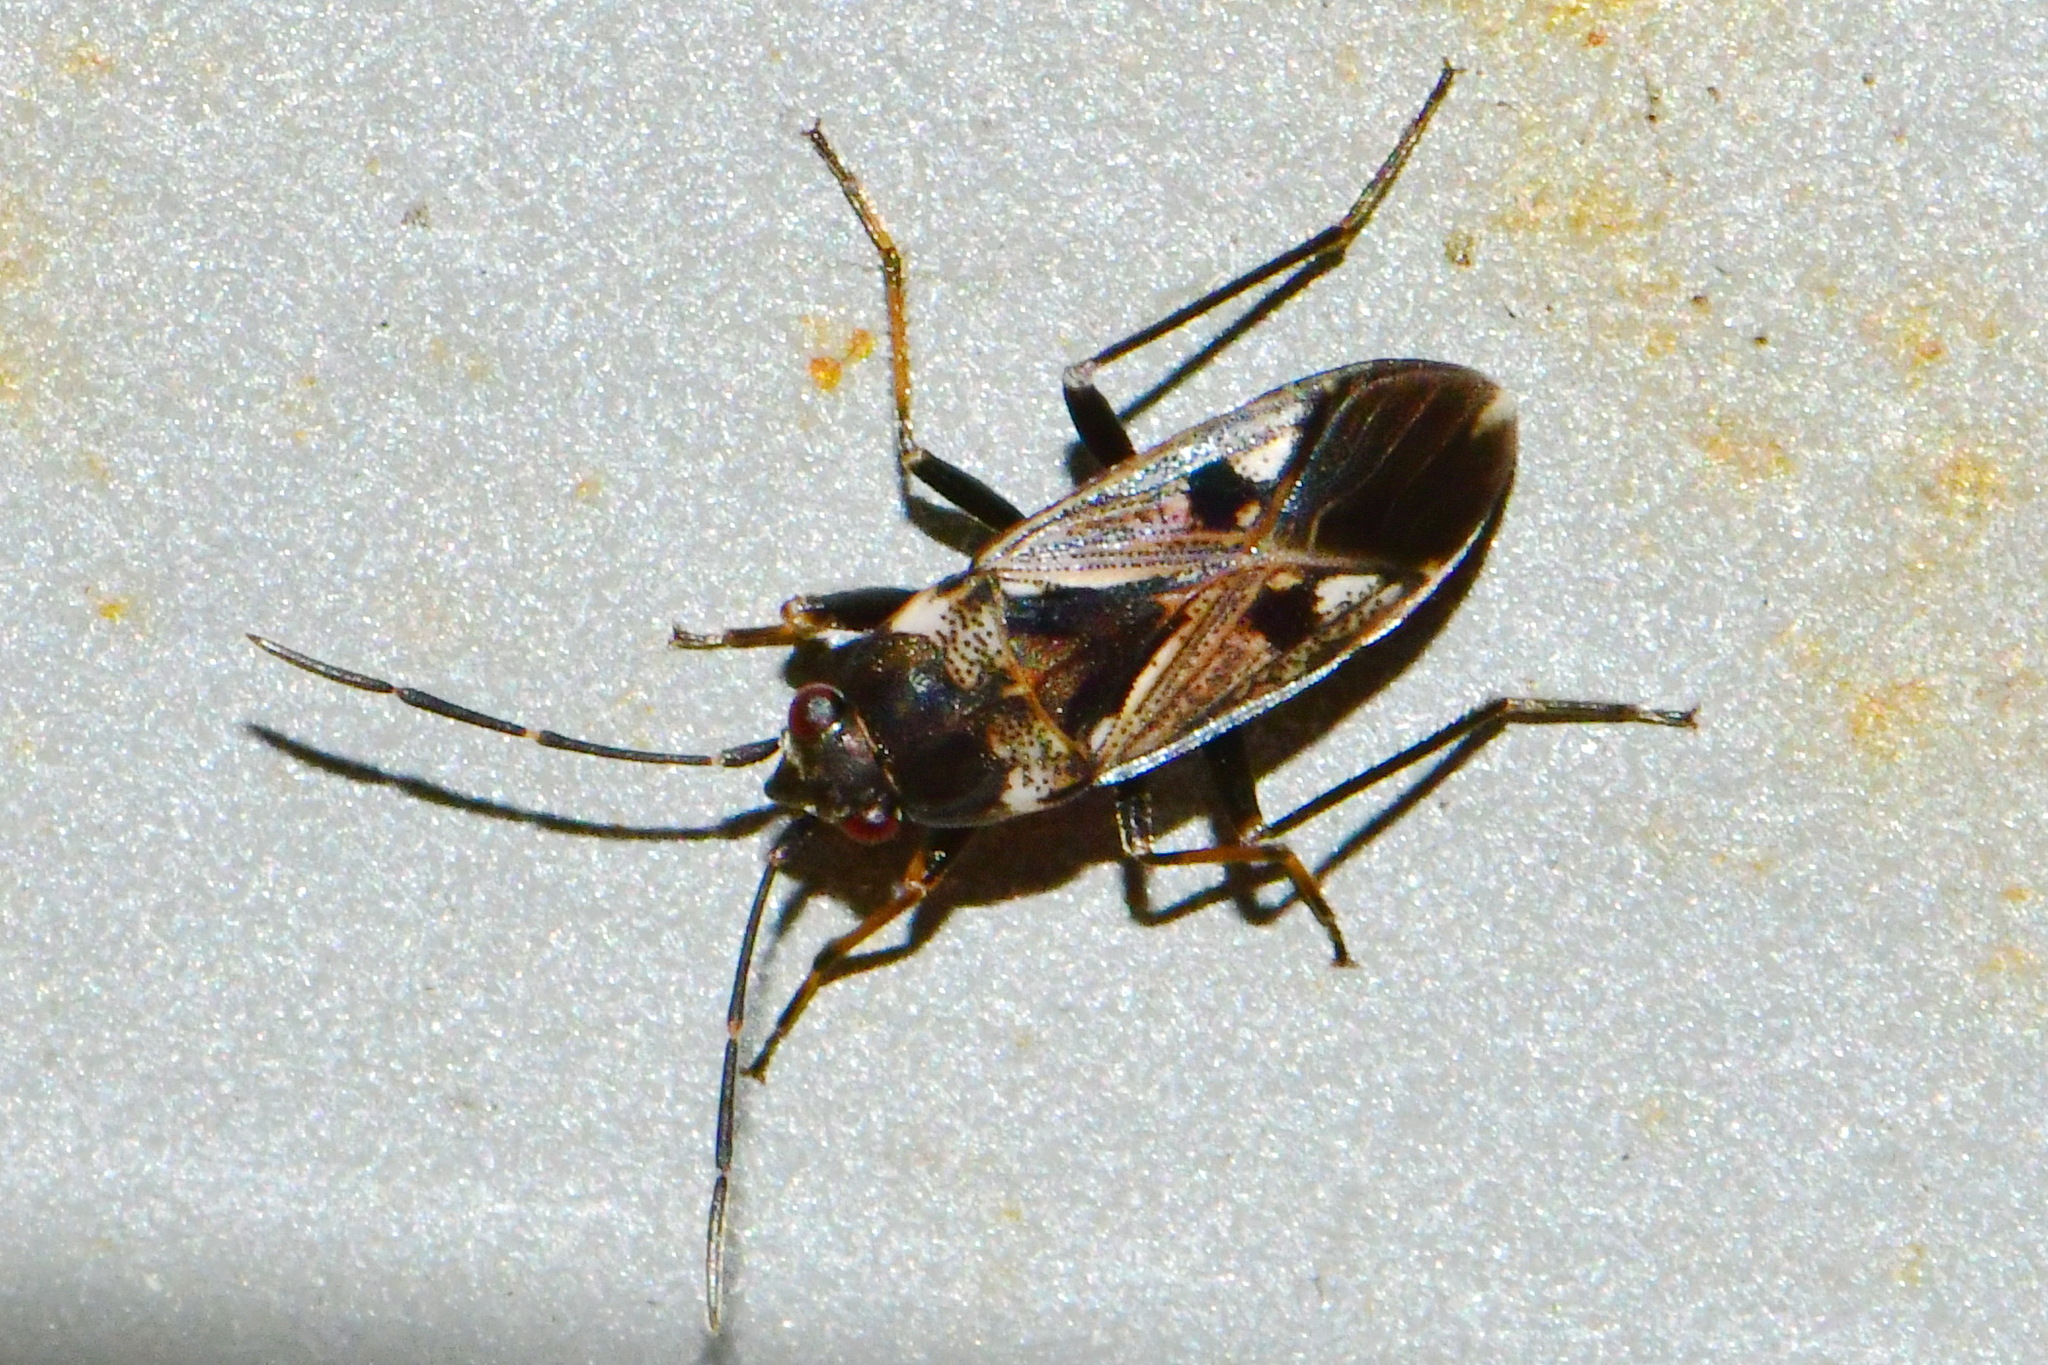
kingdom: Animalia
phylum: Arthropoda
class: Insecta
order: Hemiptera
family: Rhyparochromidae
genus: Rhyparochromus
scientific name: Rhyparochromus vulgaris
